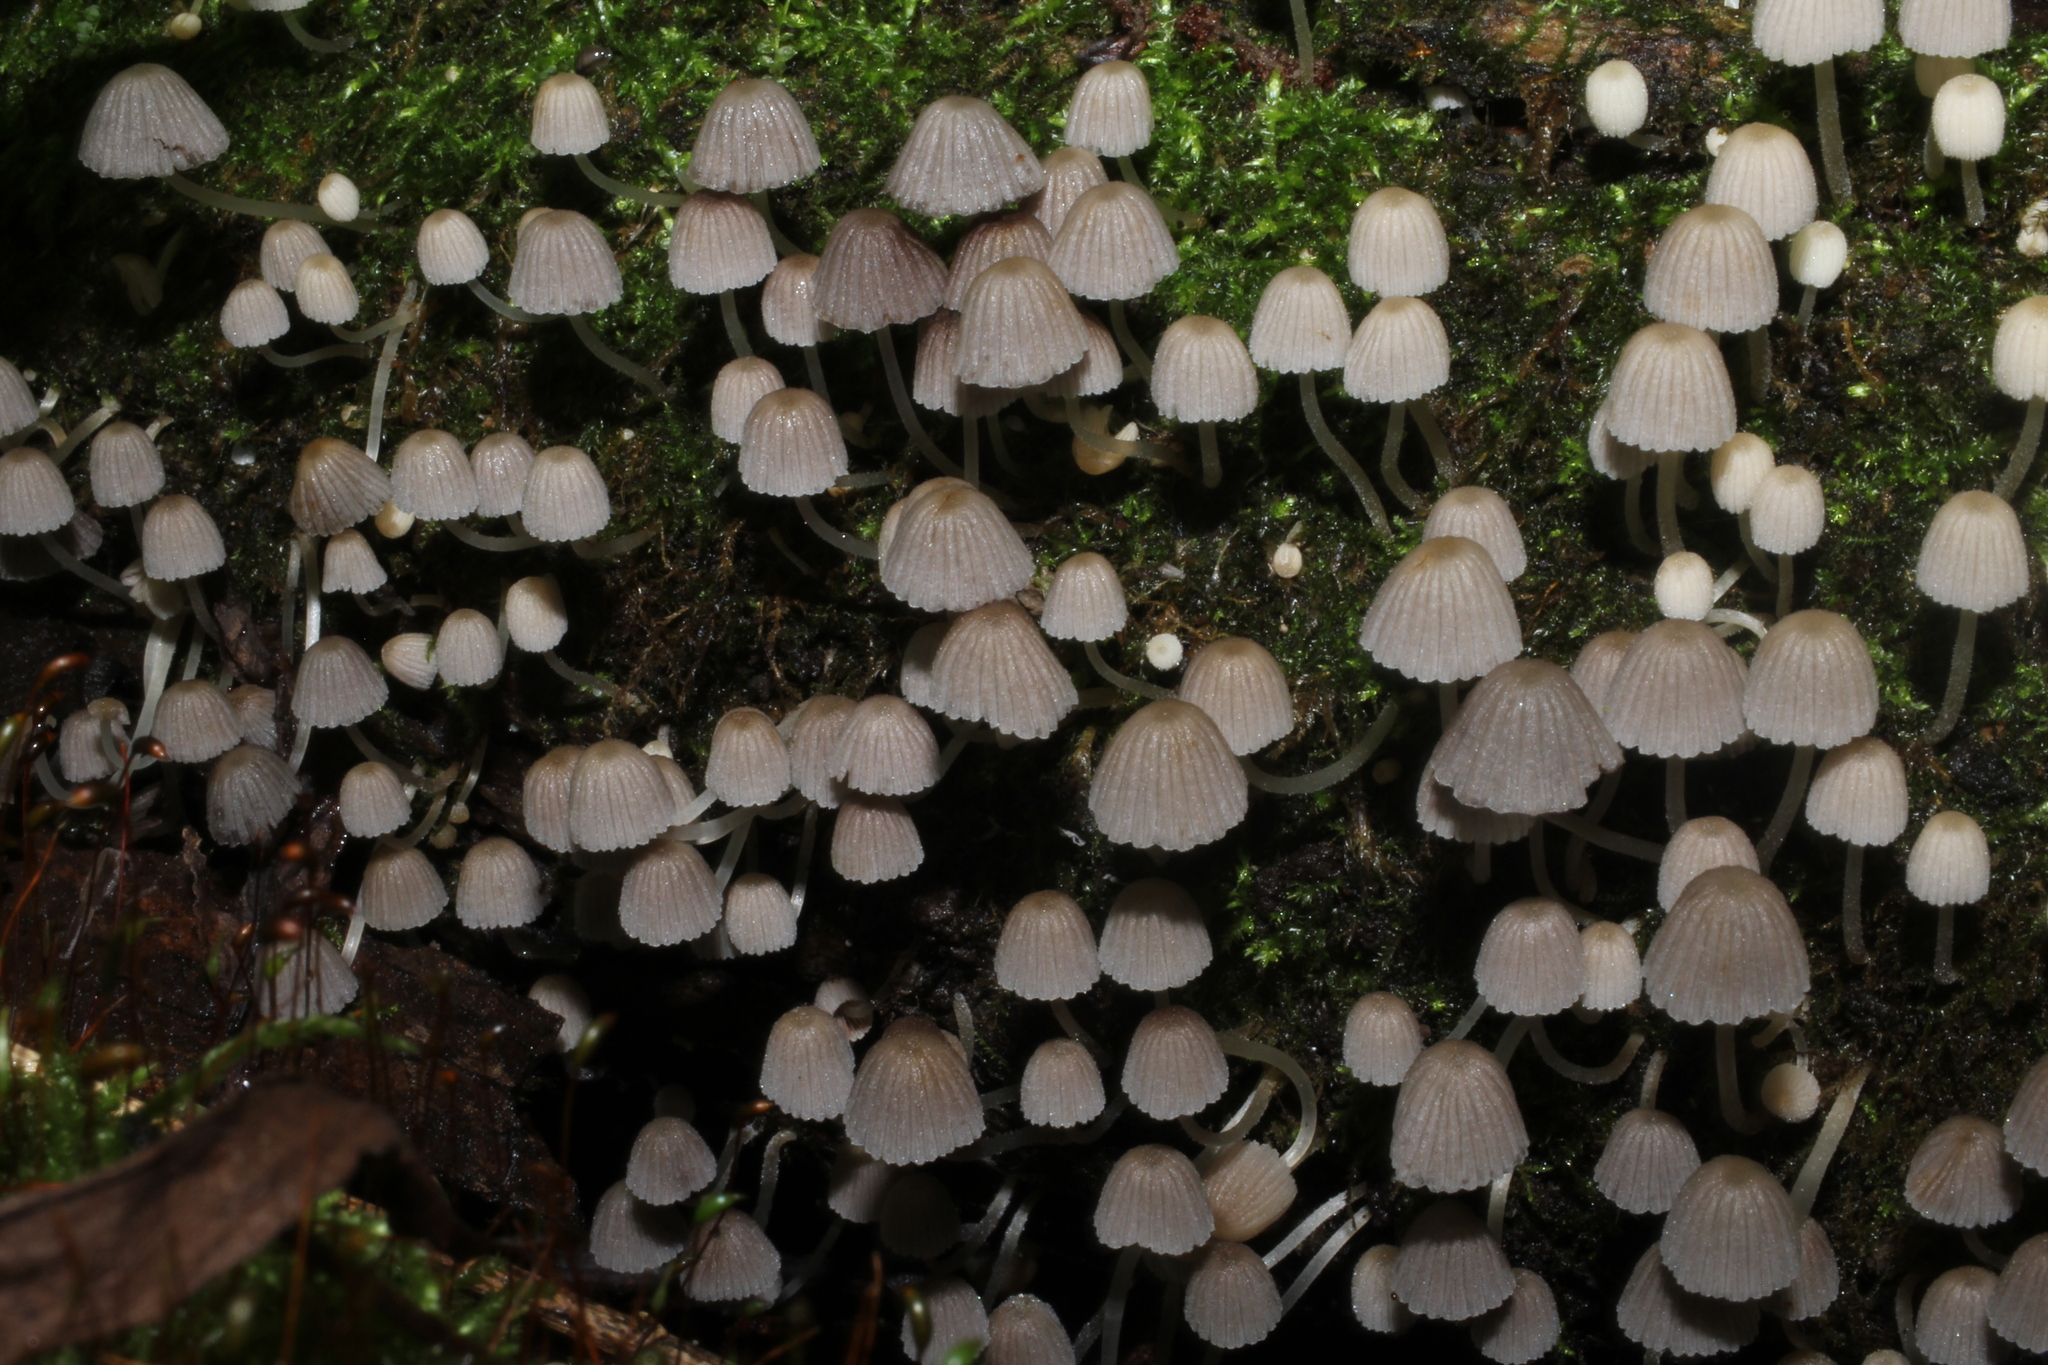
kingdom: Fungi
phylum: Basidiomycota
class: Agaricomycetes
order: Agaricales
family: Psathyrellaceae
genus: Coprinellus
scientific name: Coprinellus disseminatus
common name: Fairies' bonnets
